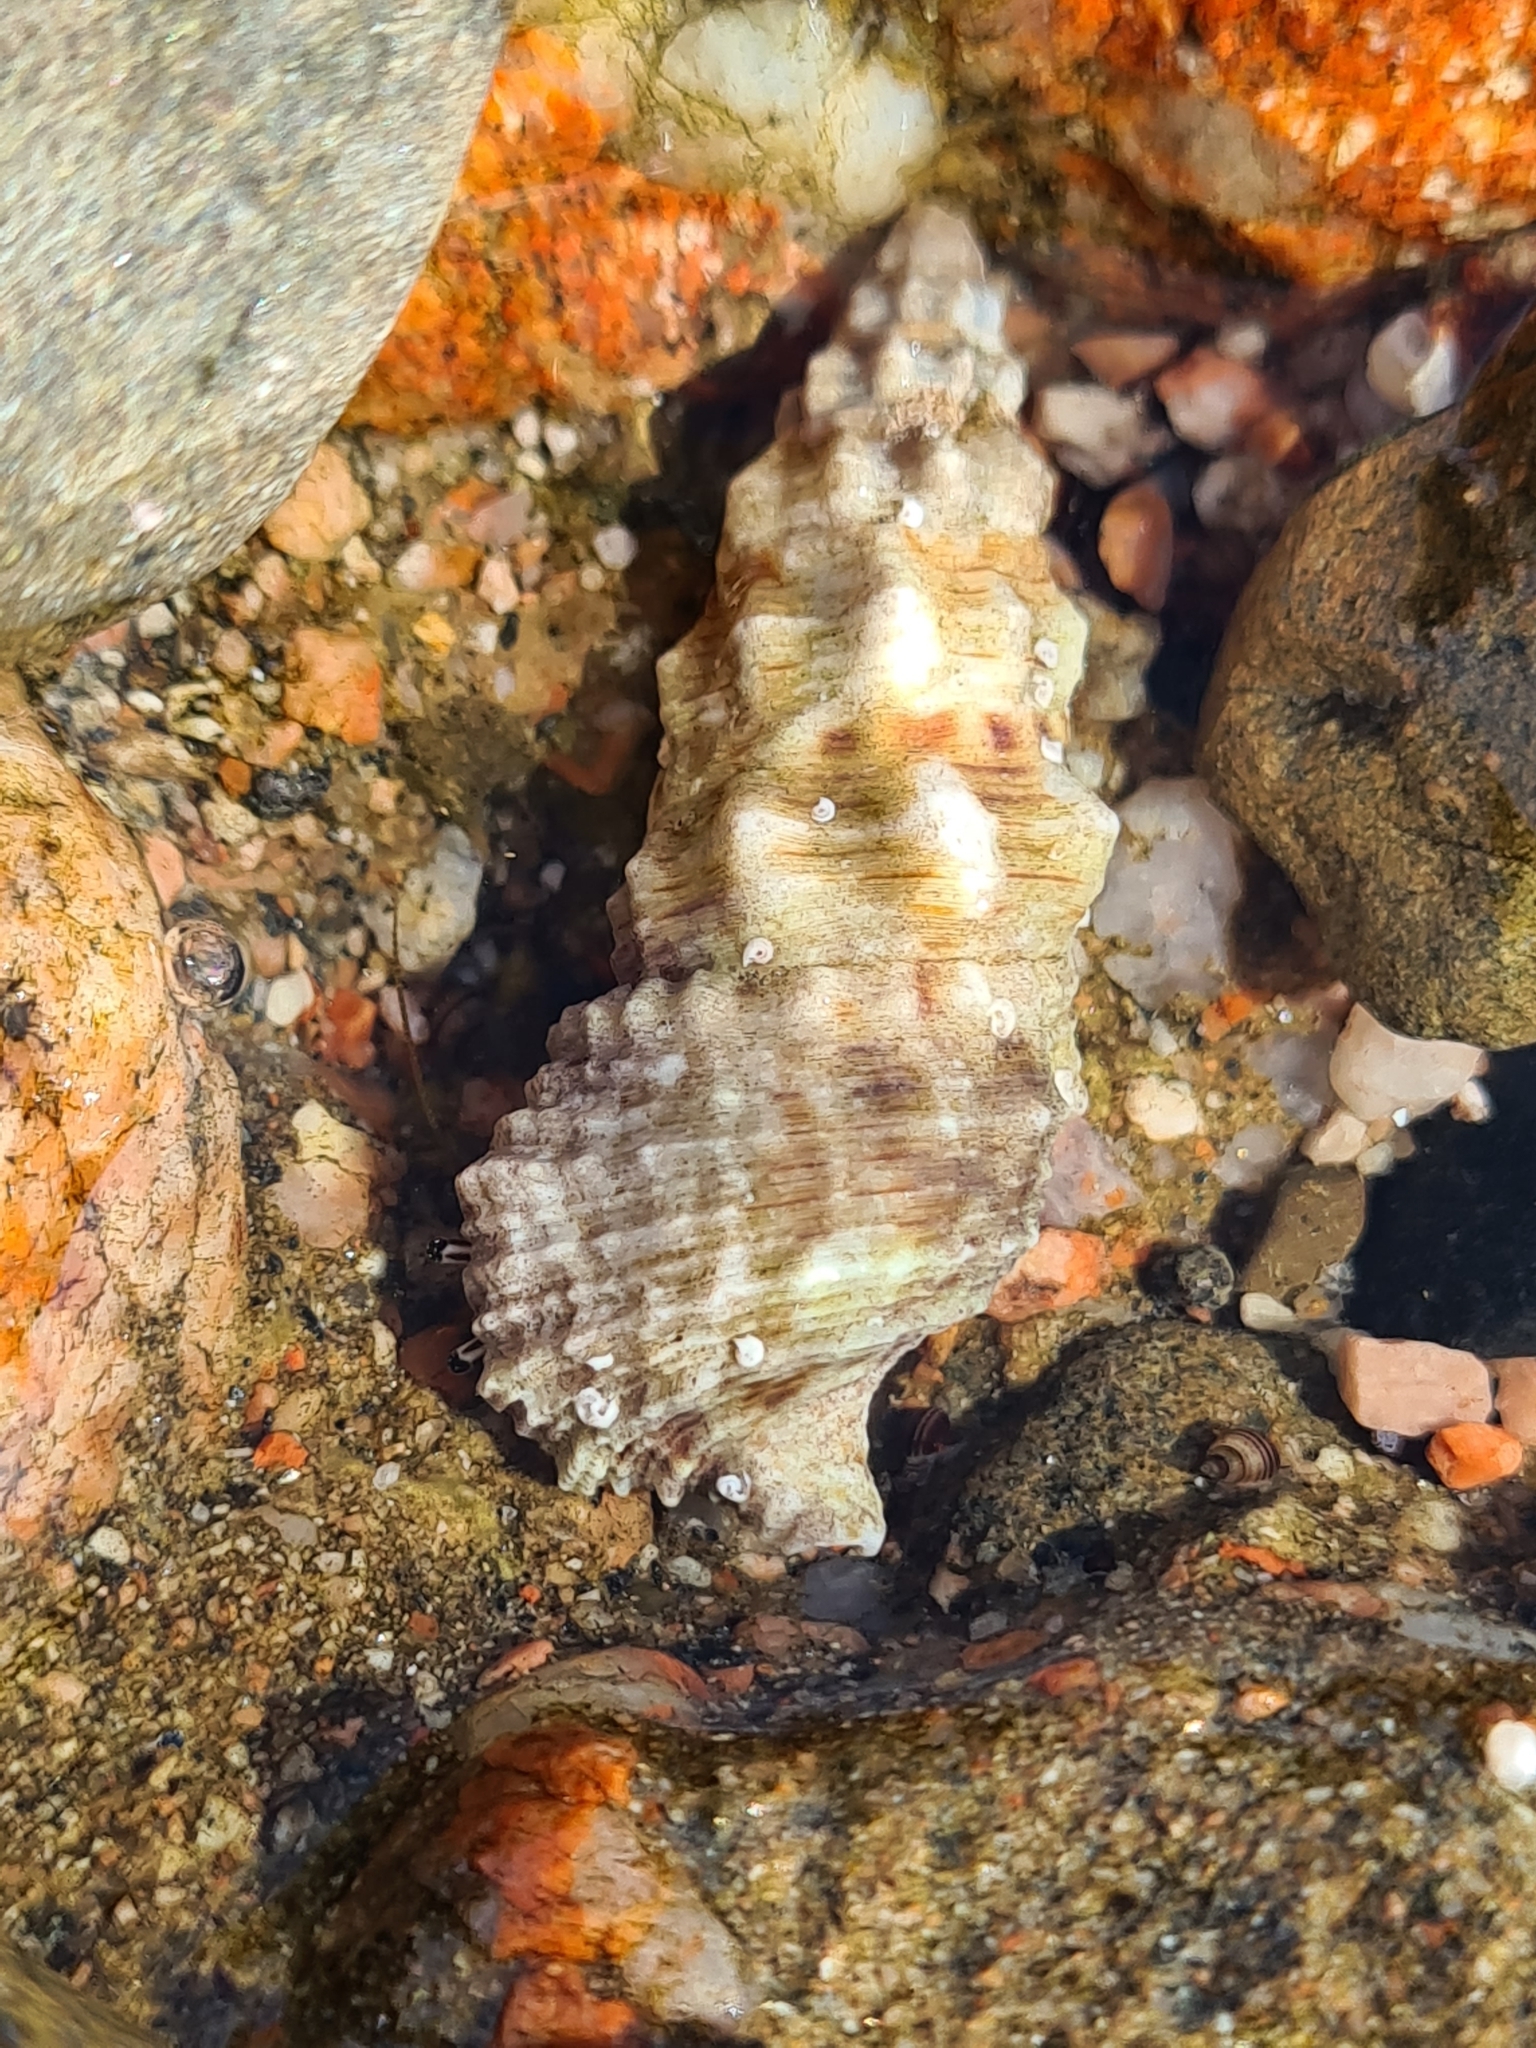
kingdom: Animalia
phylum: Arthropoda
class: Malacostraca
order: Decapoda
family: Diogenidae
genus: Clibanarius
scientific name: Clibanarius signatus
